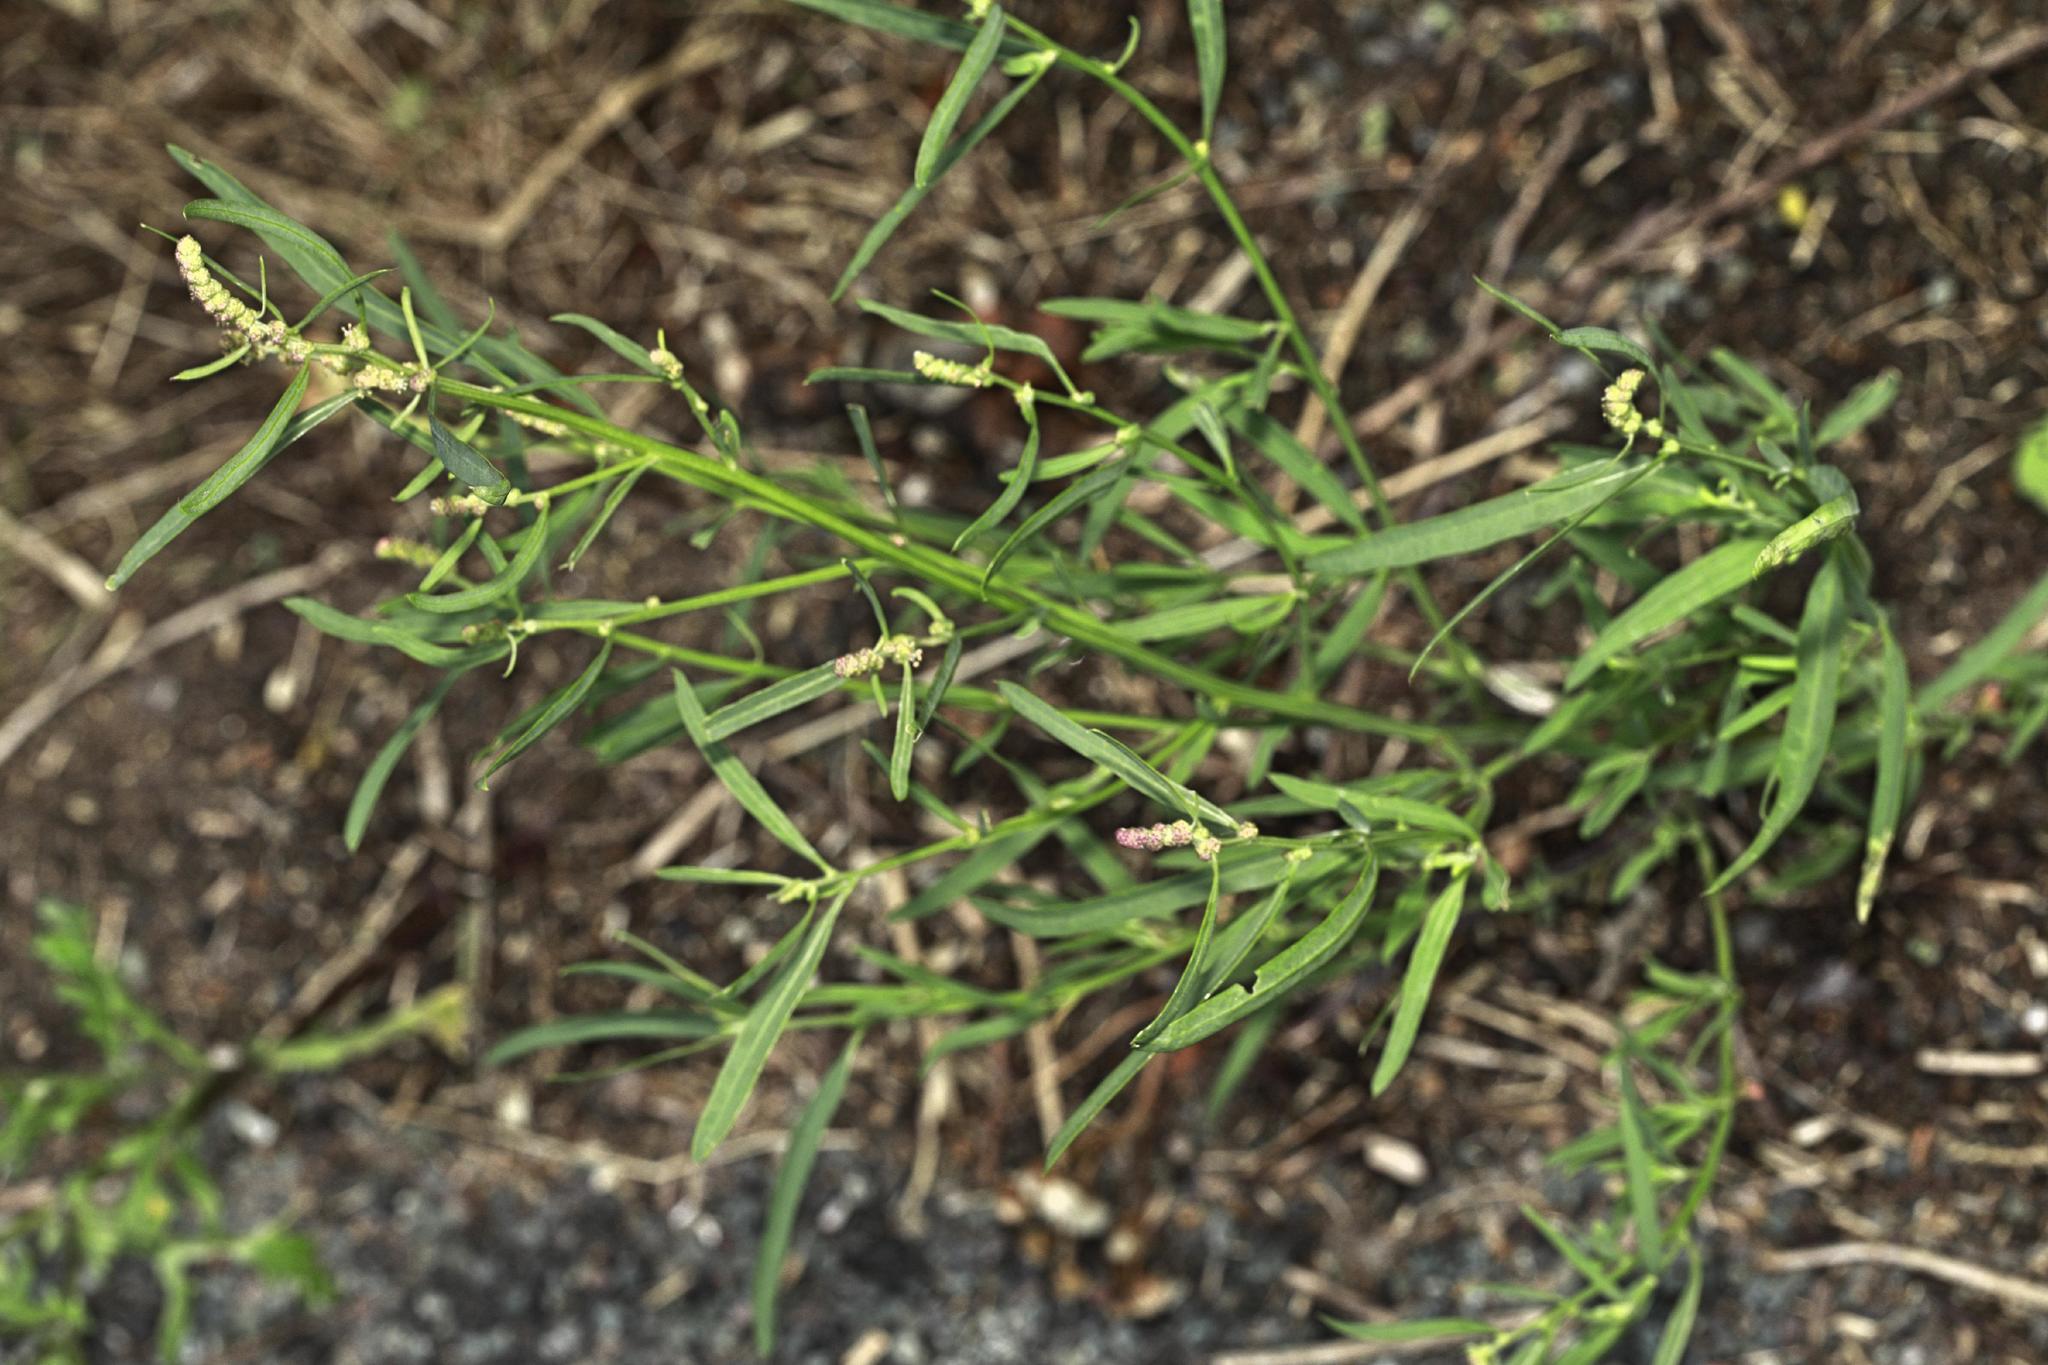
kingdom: Plantae
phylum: Tracheophyta
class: Magnoliopsida
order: Caryophyllales
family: Amaranthaceae
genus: Atriplex
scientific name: Atriplex littoralis
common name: Grass-leaved orache
